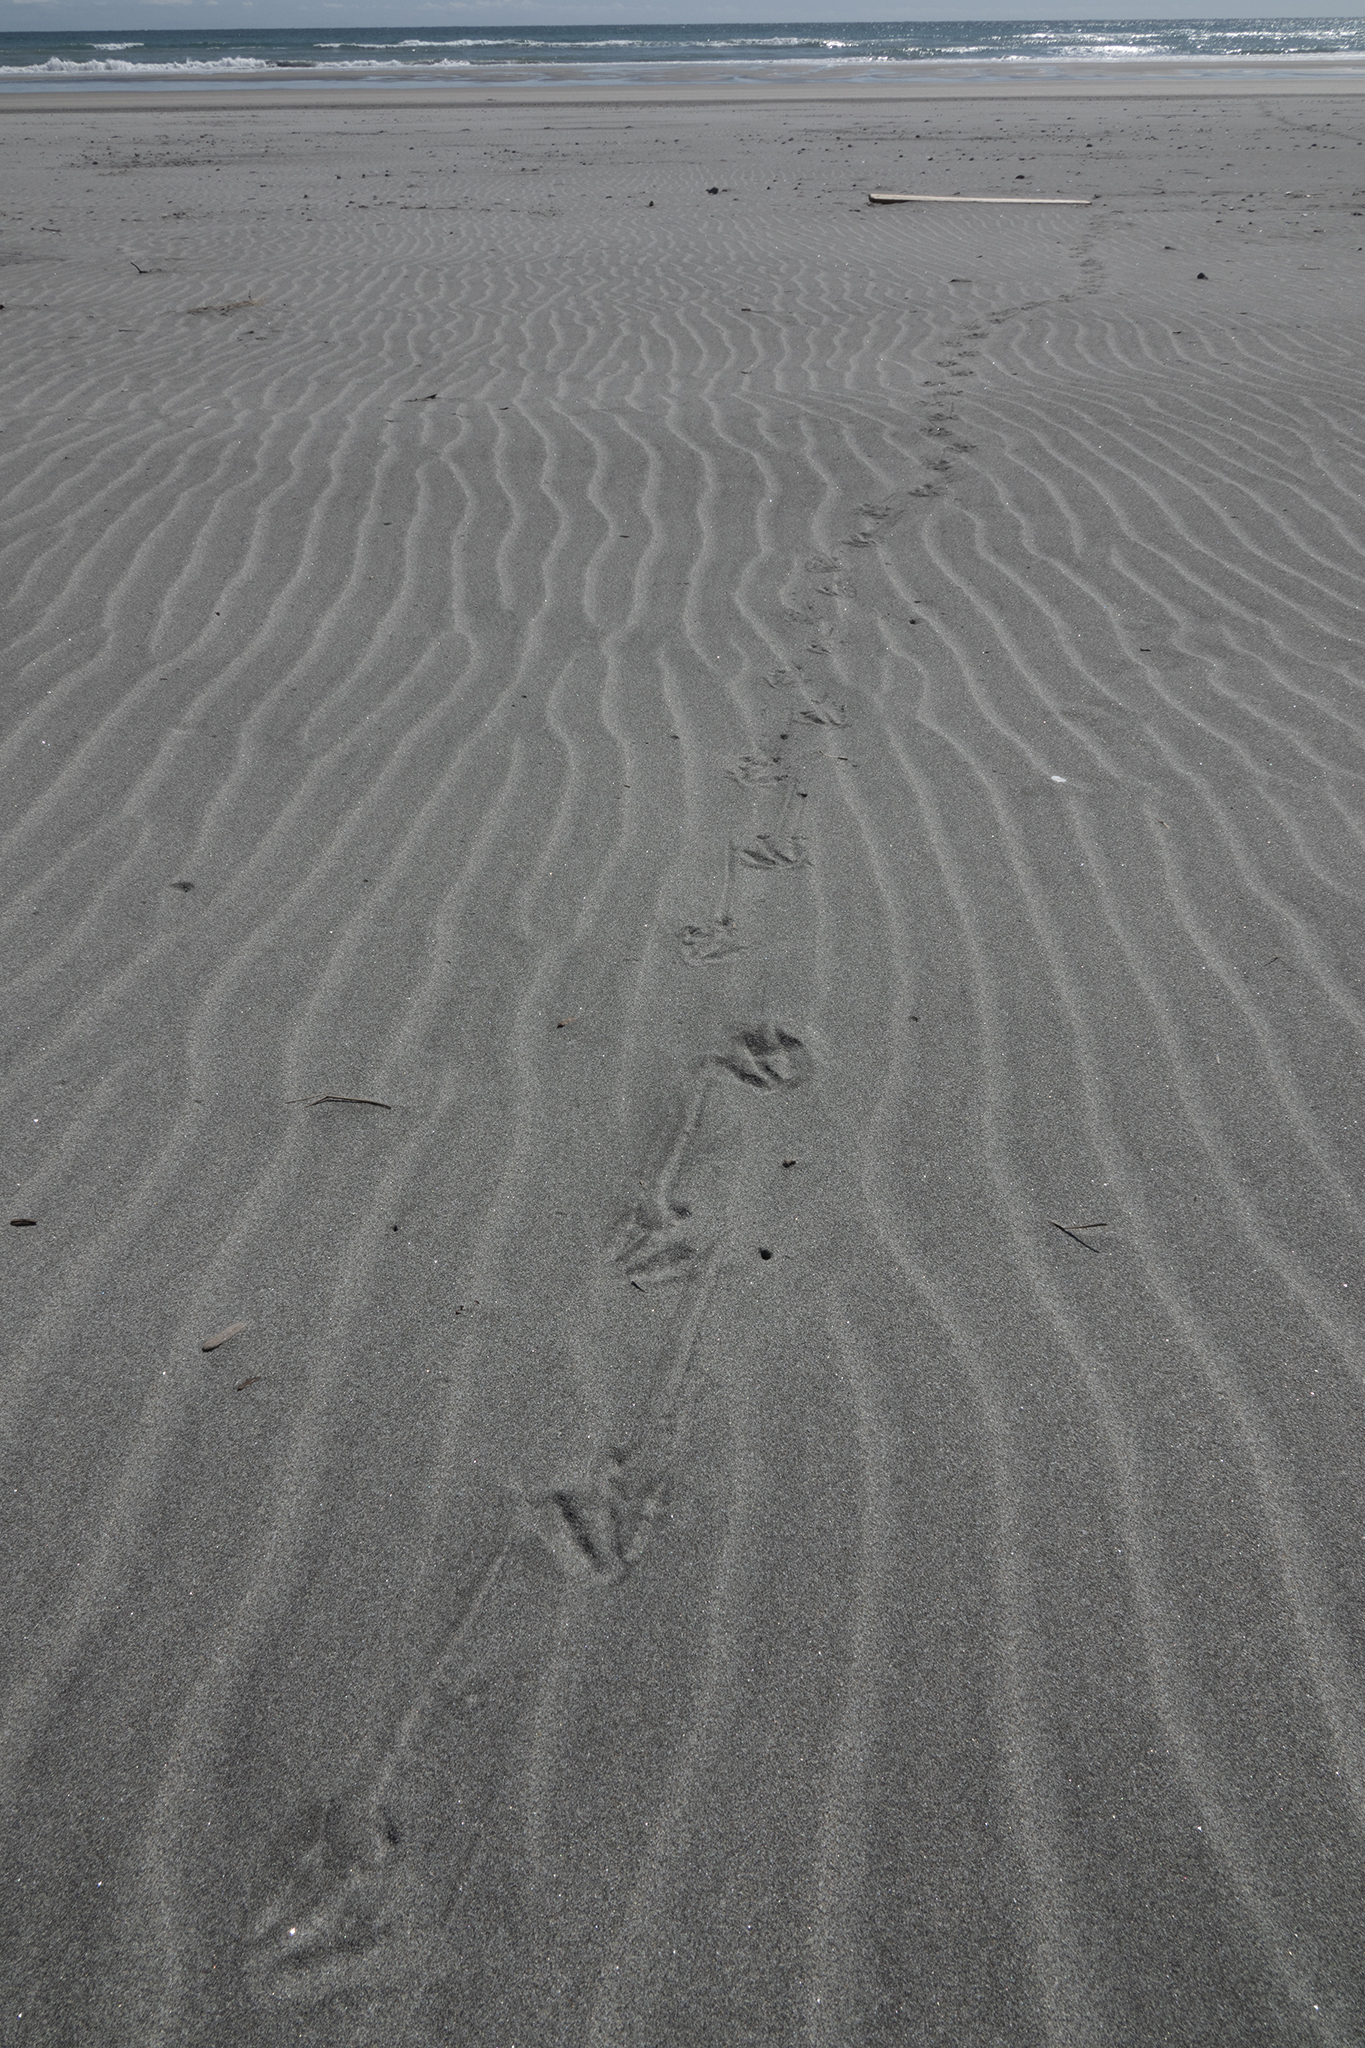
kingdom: Animalia
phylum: Chordata
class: Aves
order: Sphenisciformes
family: Spheniscidae
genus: Eudyptula
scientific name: Eudyptula minor
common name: Little penguin
